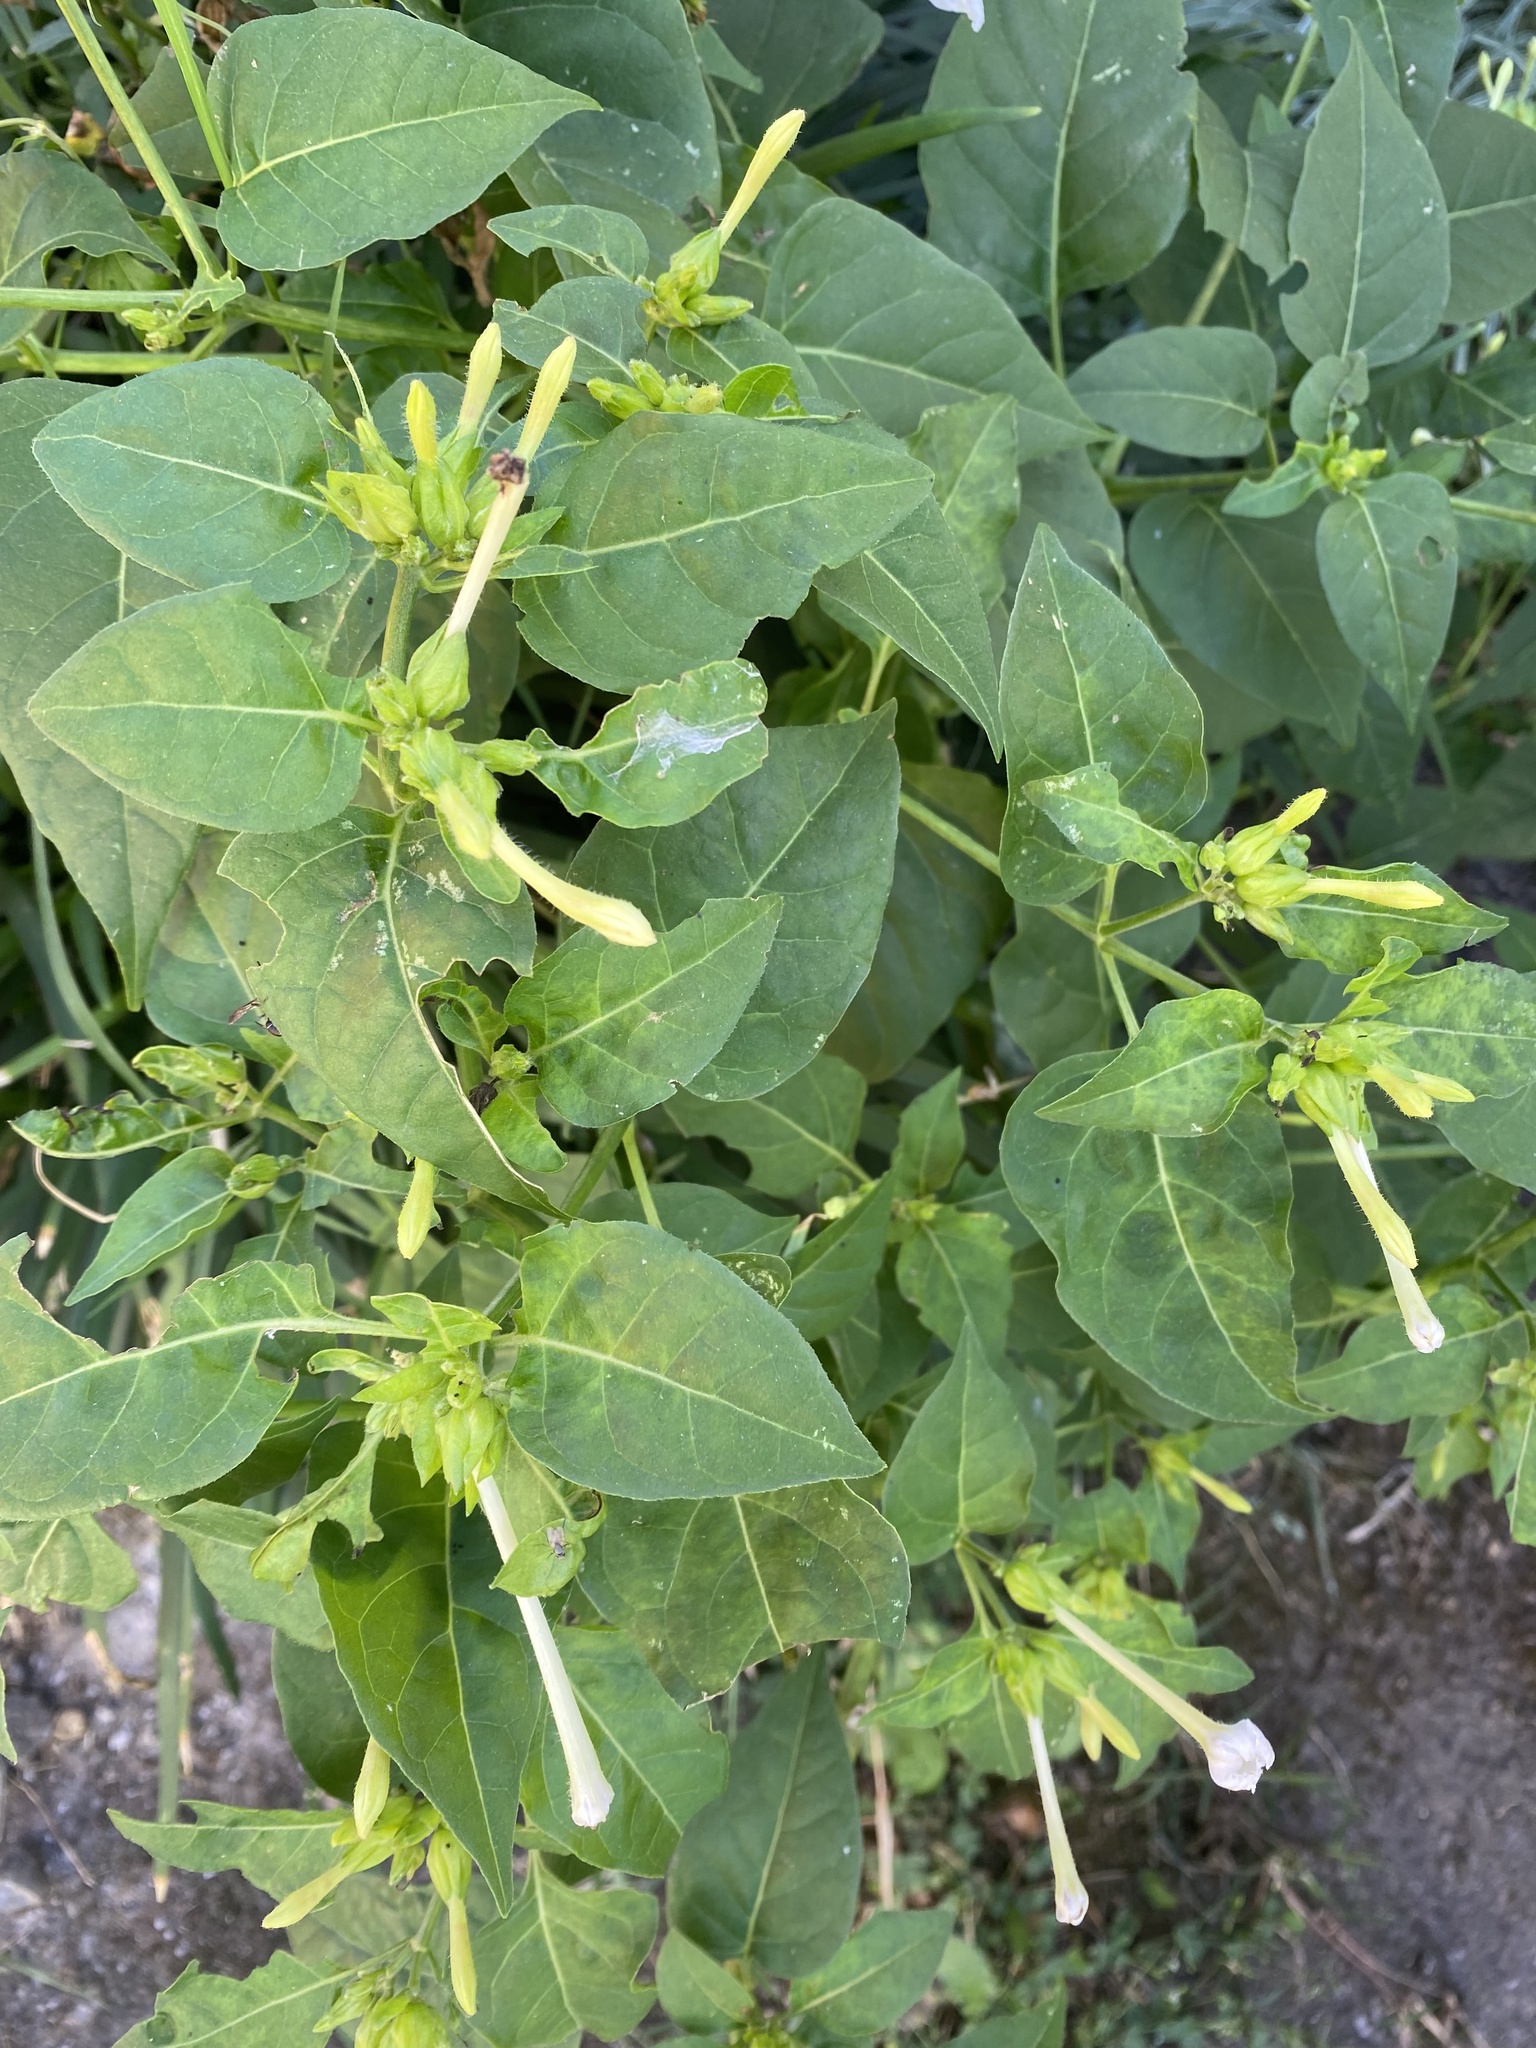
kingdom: Plantae
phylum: Tracheophyta
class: Magnoliopsida
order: Caryophyllales
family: Nyctaginaceae
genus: Mirabilis
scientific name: Mirabilis jalapa
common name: Marvel-of-peru
